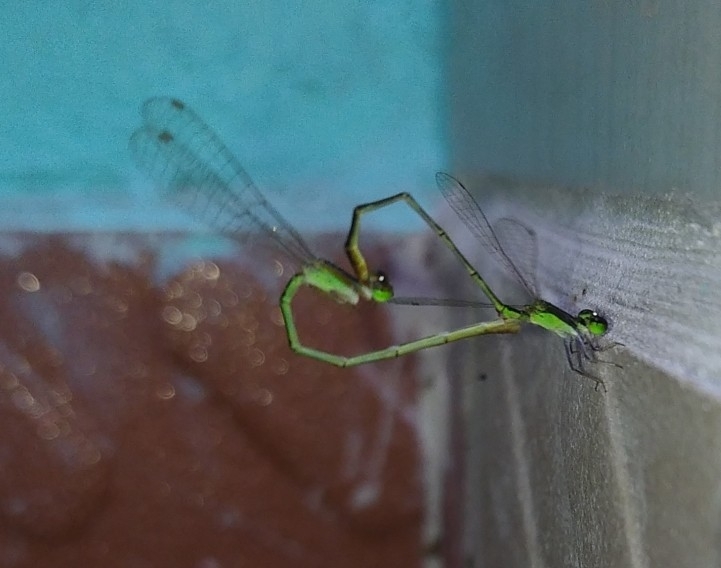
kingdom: Animalia
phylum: Arthropoda
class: Insecta
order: Odonata
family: Coenagrionidae
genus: Agriocnemis
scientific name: Agriocnemis pygmaea
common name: Pygmy wisp
